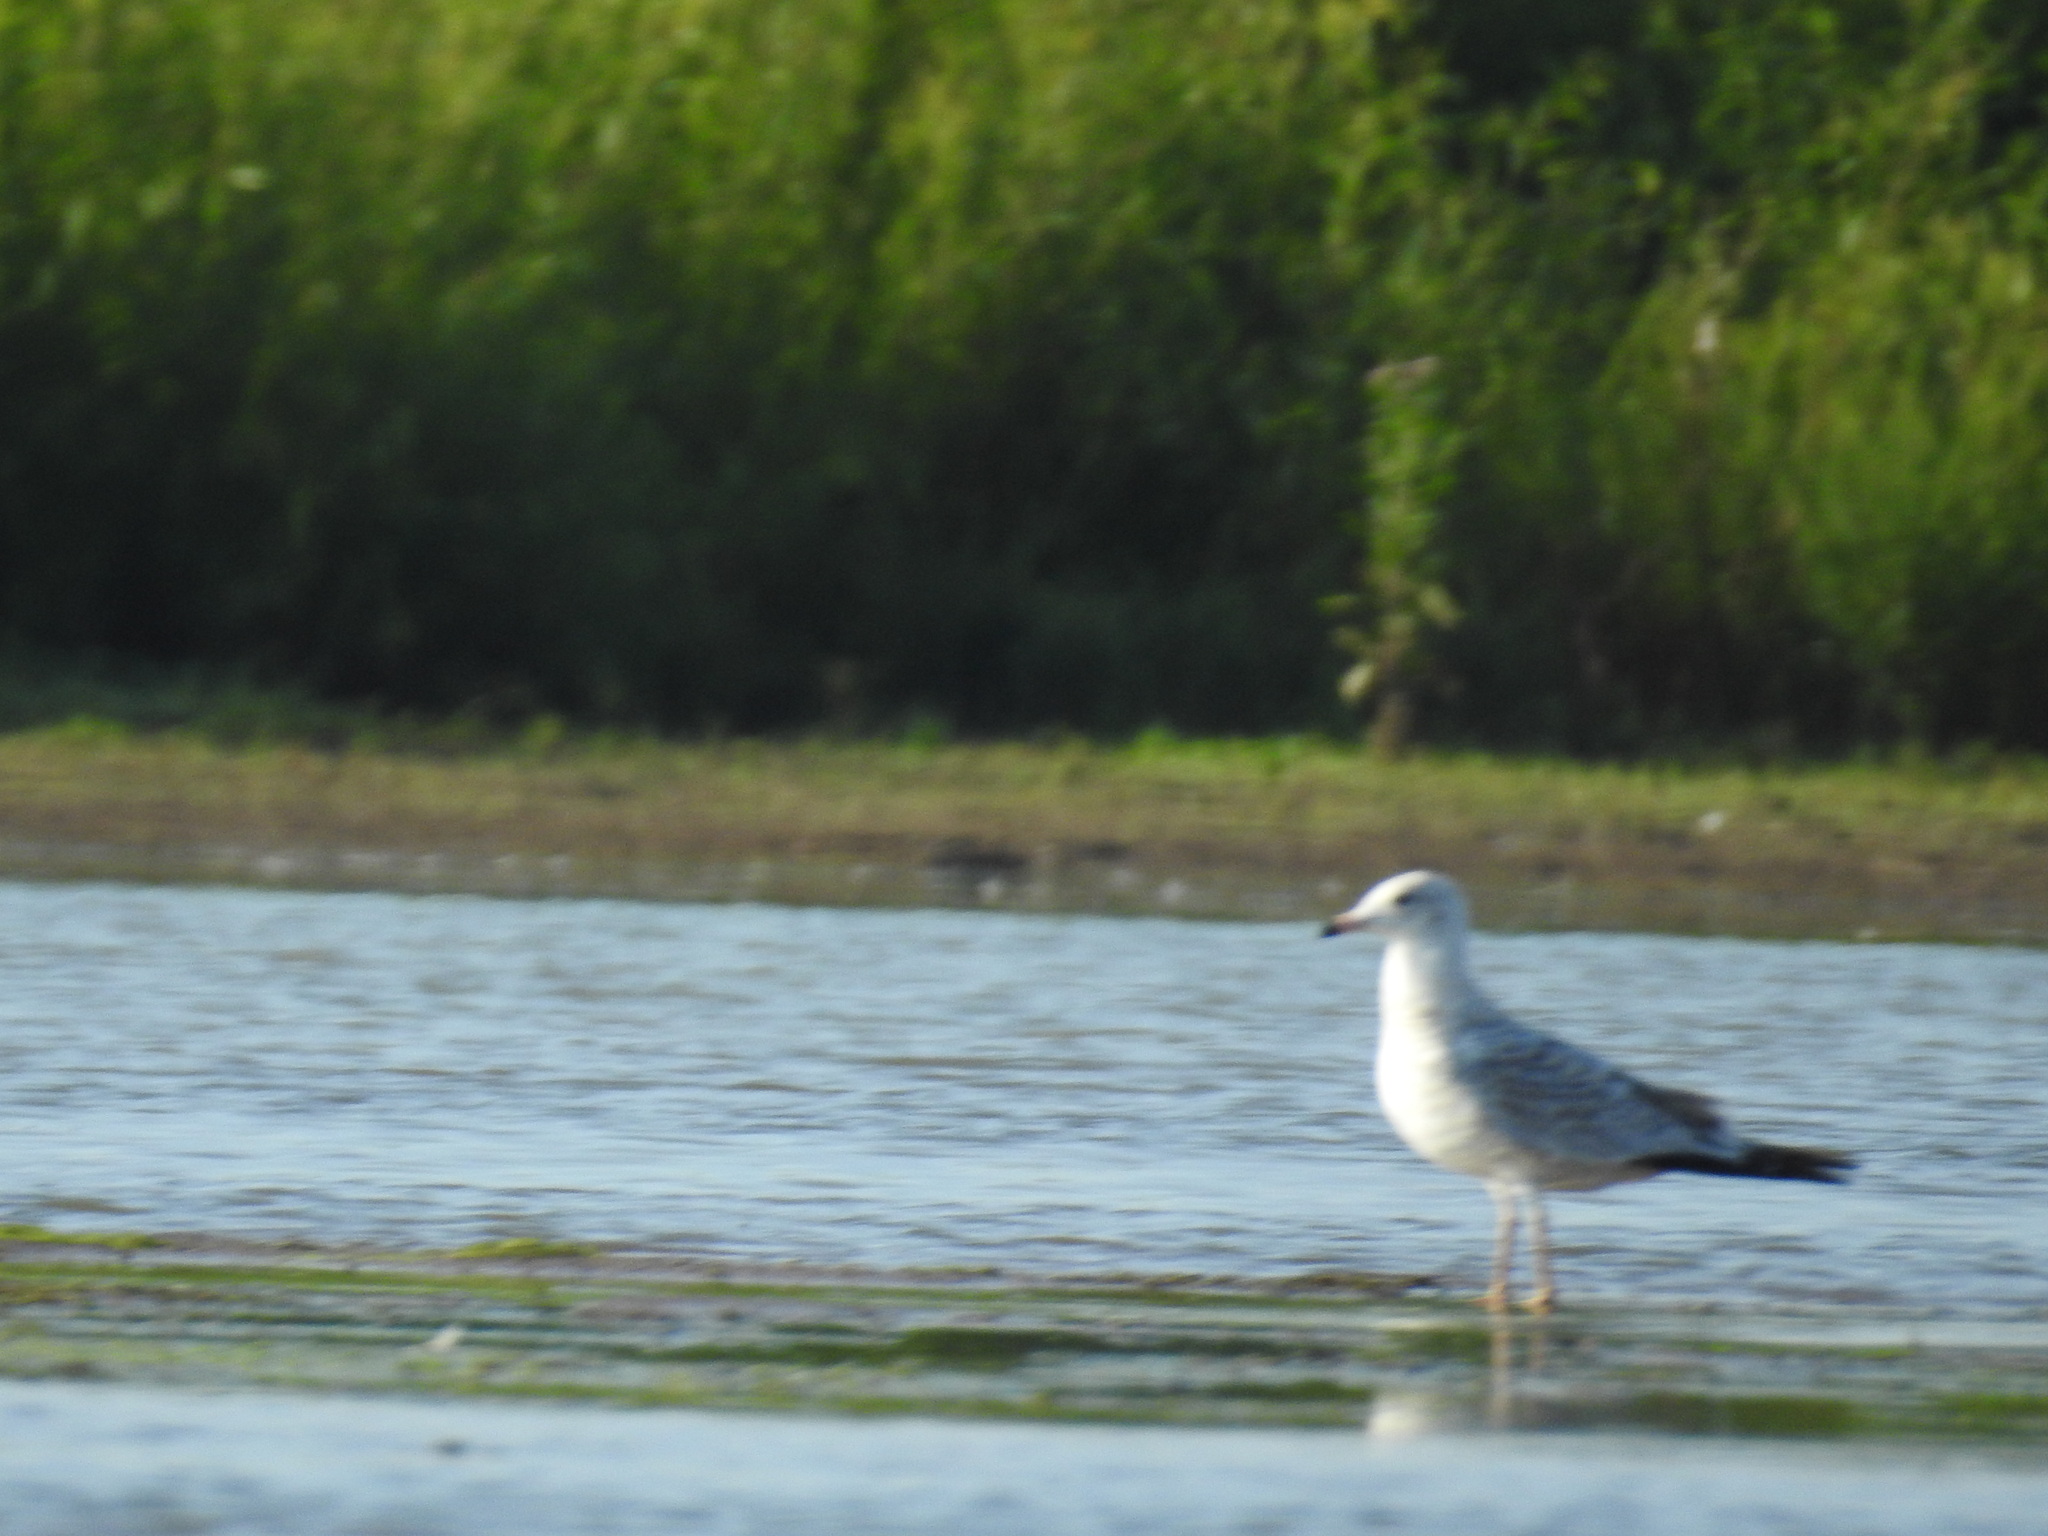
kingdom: Animalia
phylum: Chordata
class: Aves
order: Charadriiformes
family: Laridae
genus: Larus
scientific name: Larus delawarensis
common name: Ring-billed gull
